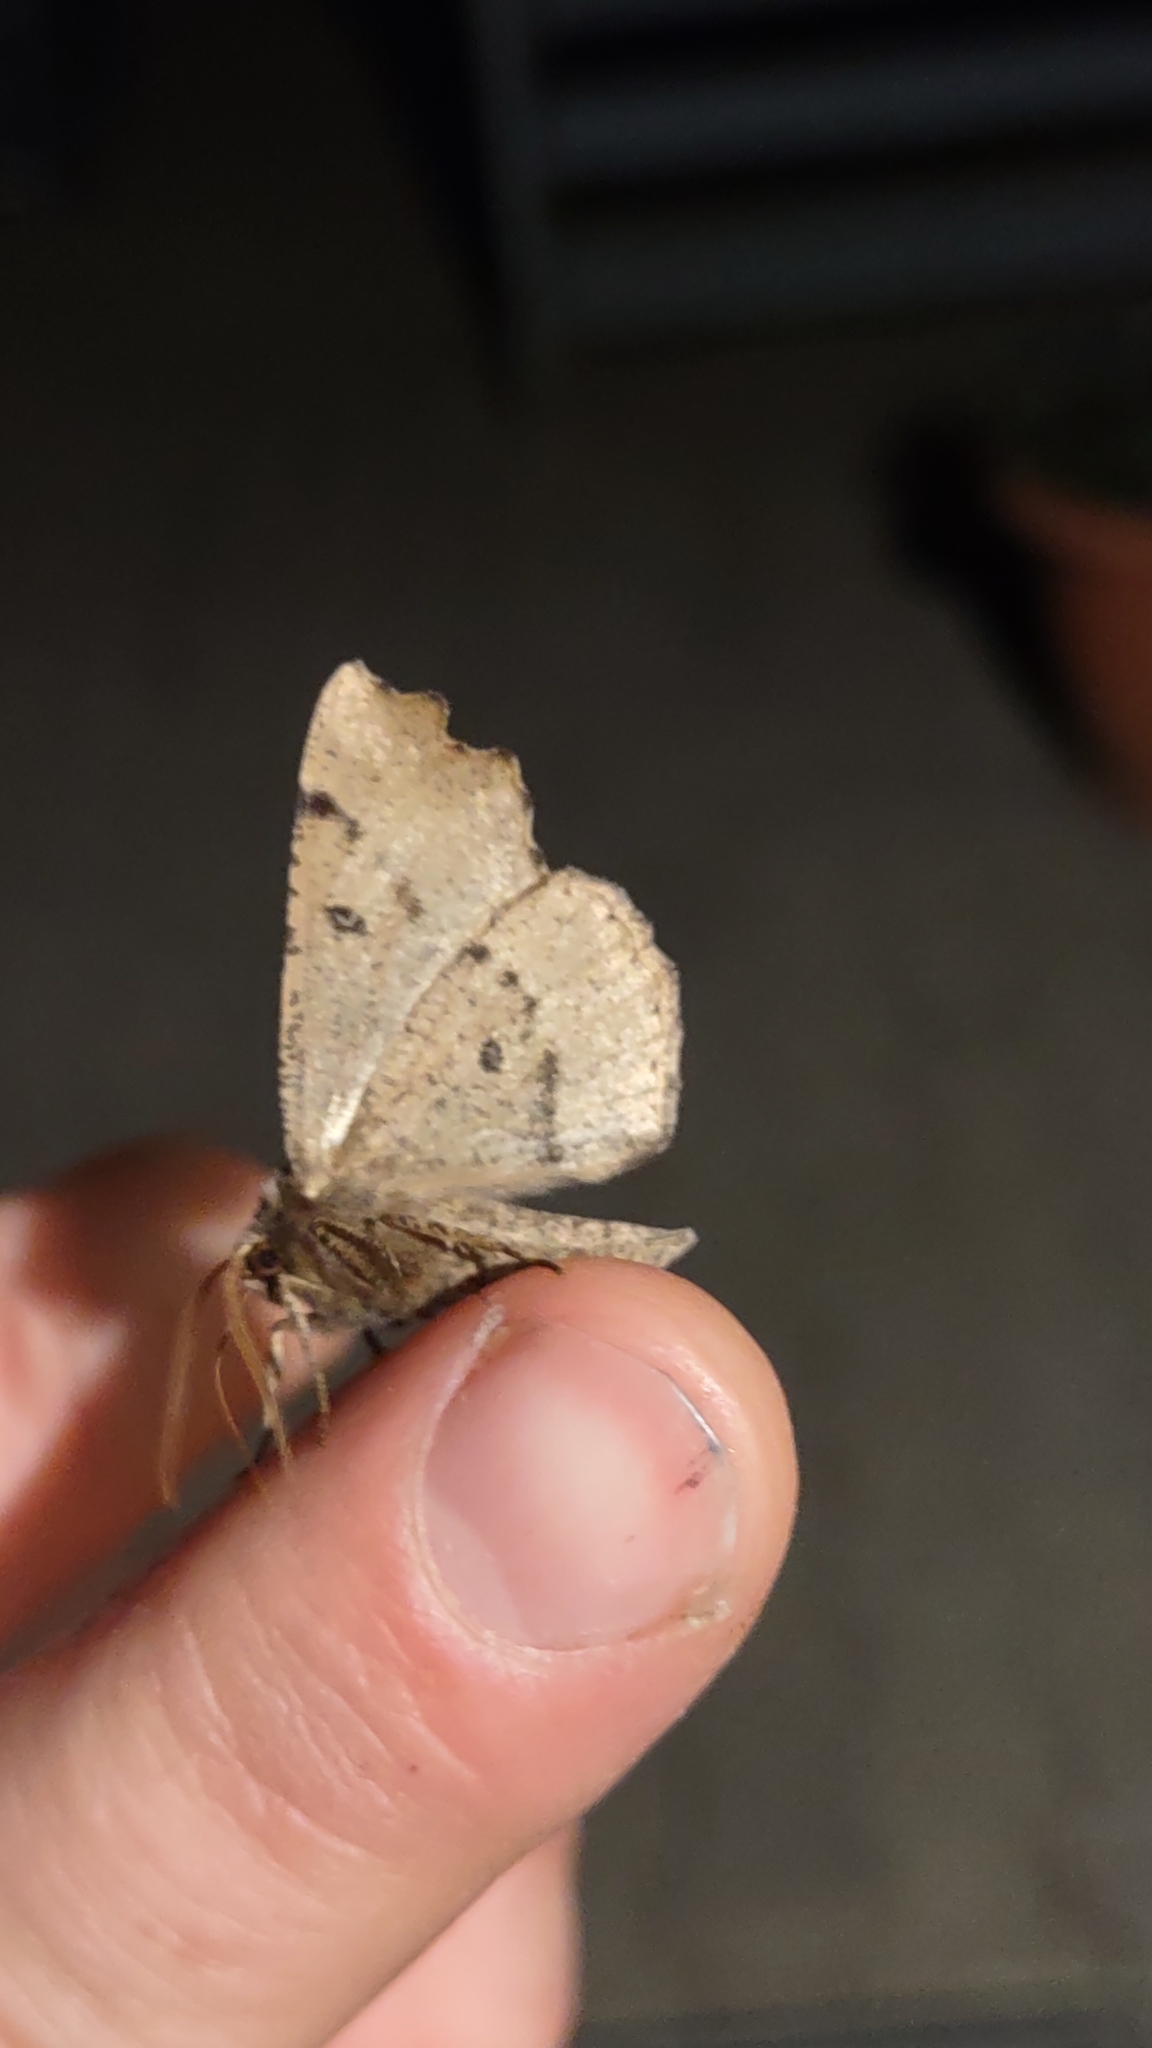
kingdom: Animalia
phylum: Arthropoda
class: Insecta
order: Lepidoptera
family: Geometridae
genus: Odontopera
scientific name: Odontopera bidentata
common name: Scalloped hazel
